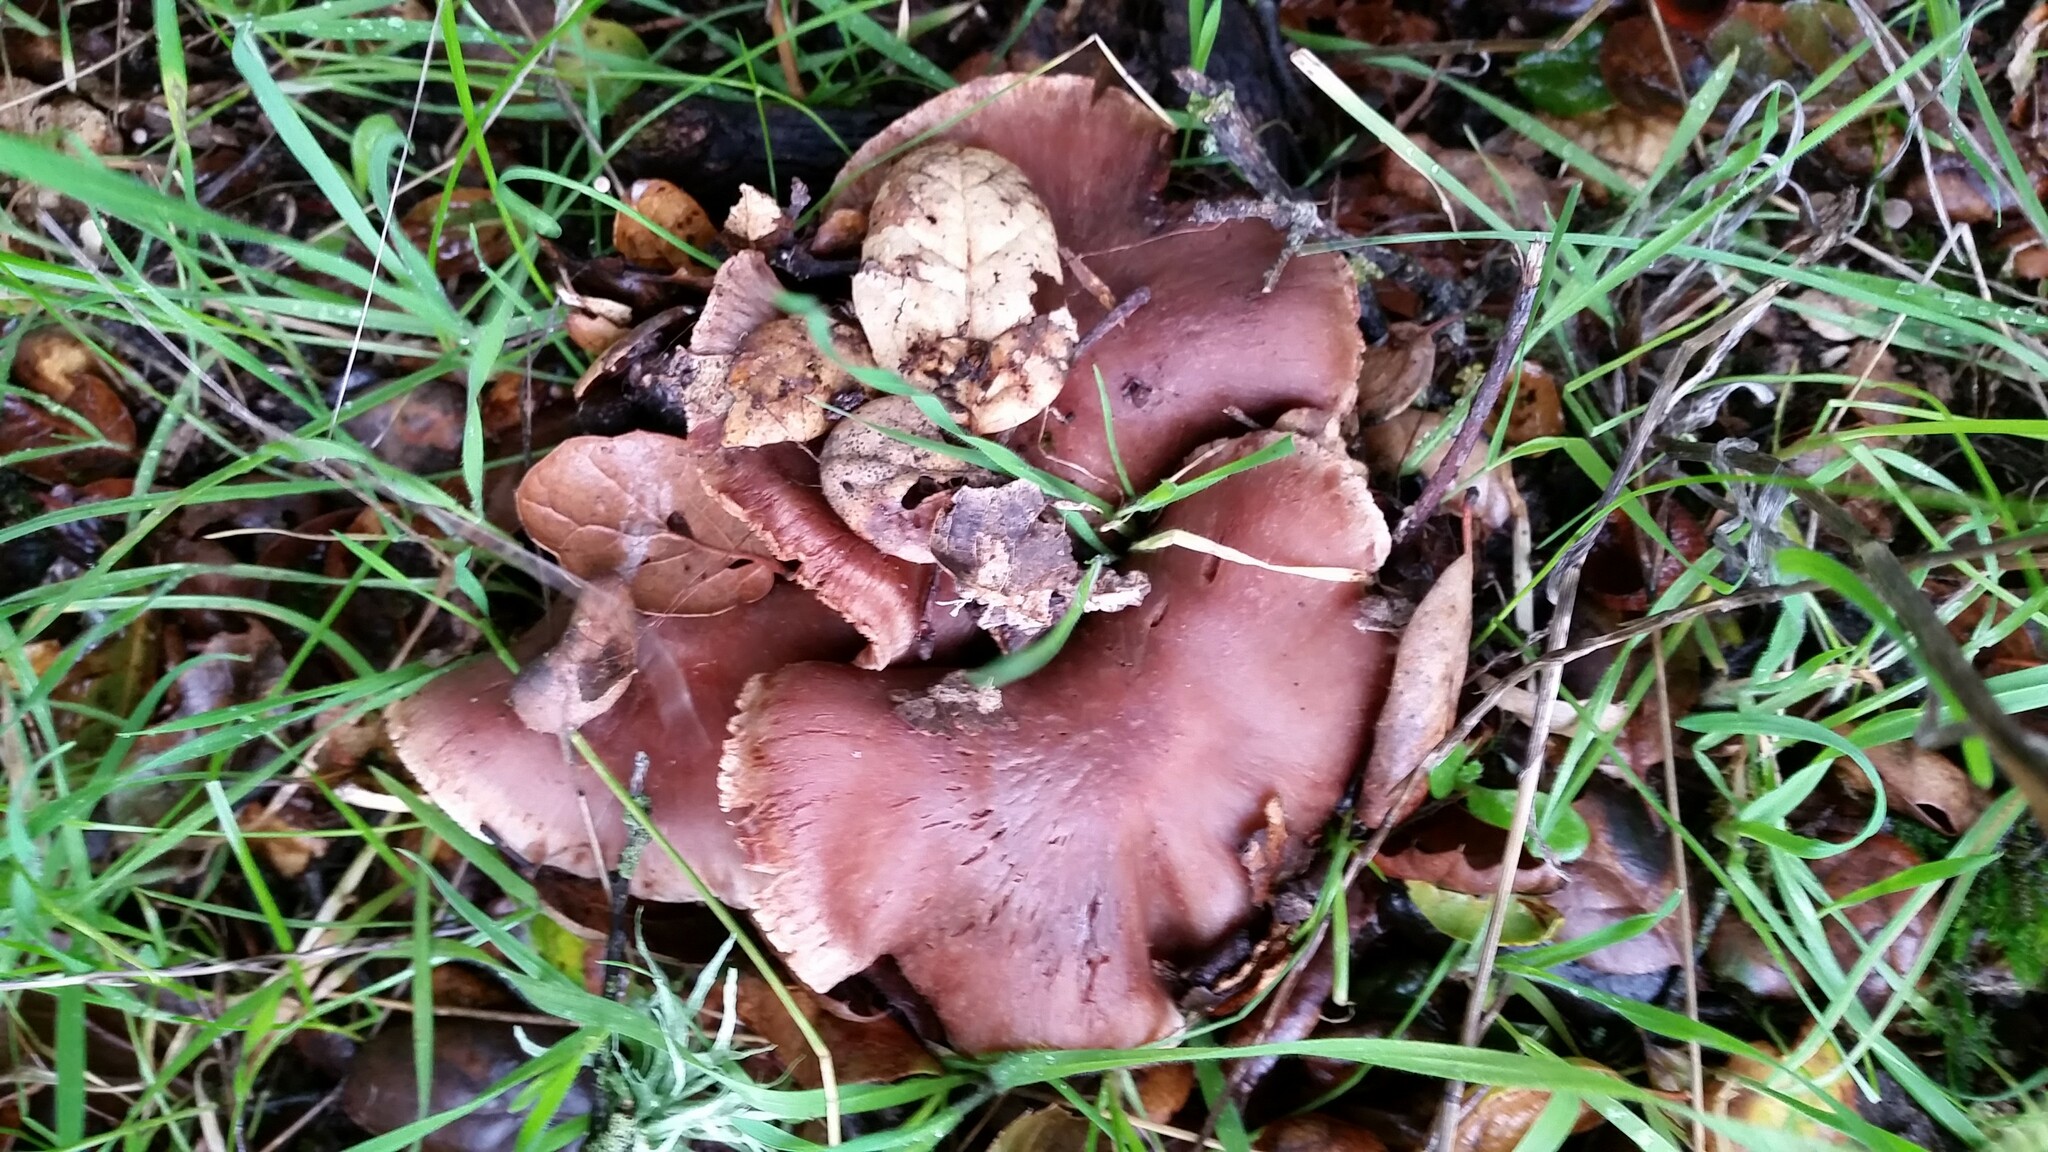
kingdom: Fungi
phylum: Basidiomycota
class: Agaricomycetes
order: Agaricales
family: Cortinariaceae
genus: Cortinarius
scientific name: Cortinarius ohlone
